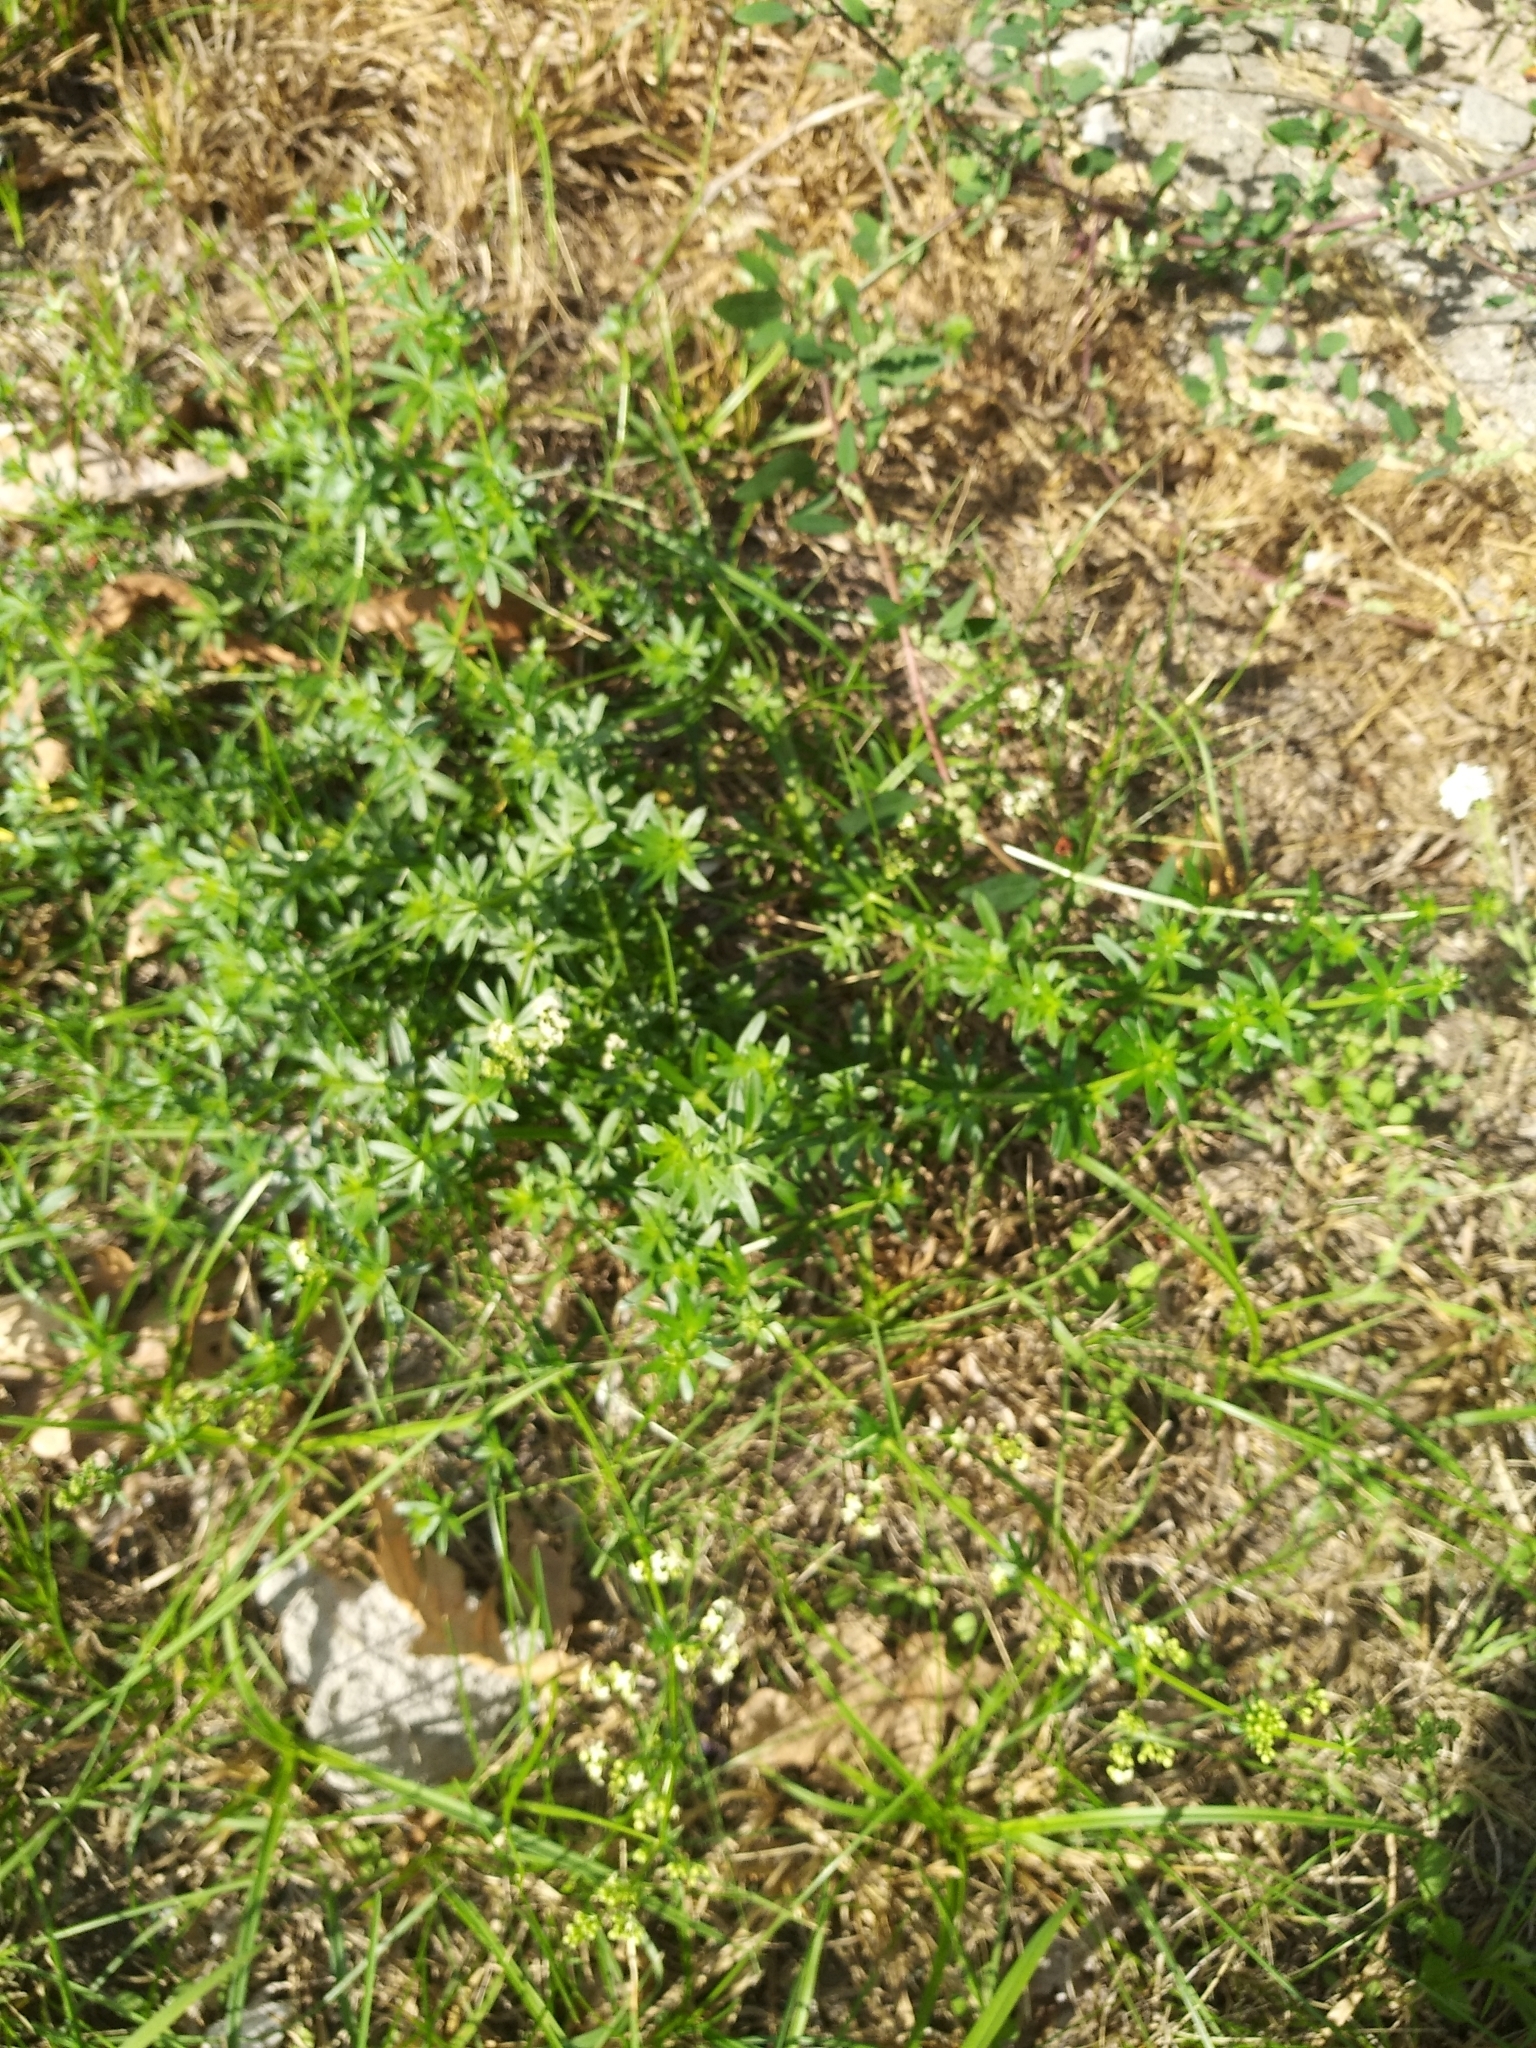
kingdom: Plantae
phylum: Tracheophyta
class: Magnoliopsida
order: Gentianales
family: Rubiaceae
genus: Galium
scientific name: Galium mollugo
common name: Hedge bedstraw
